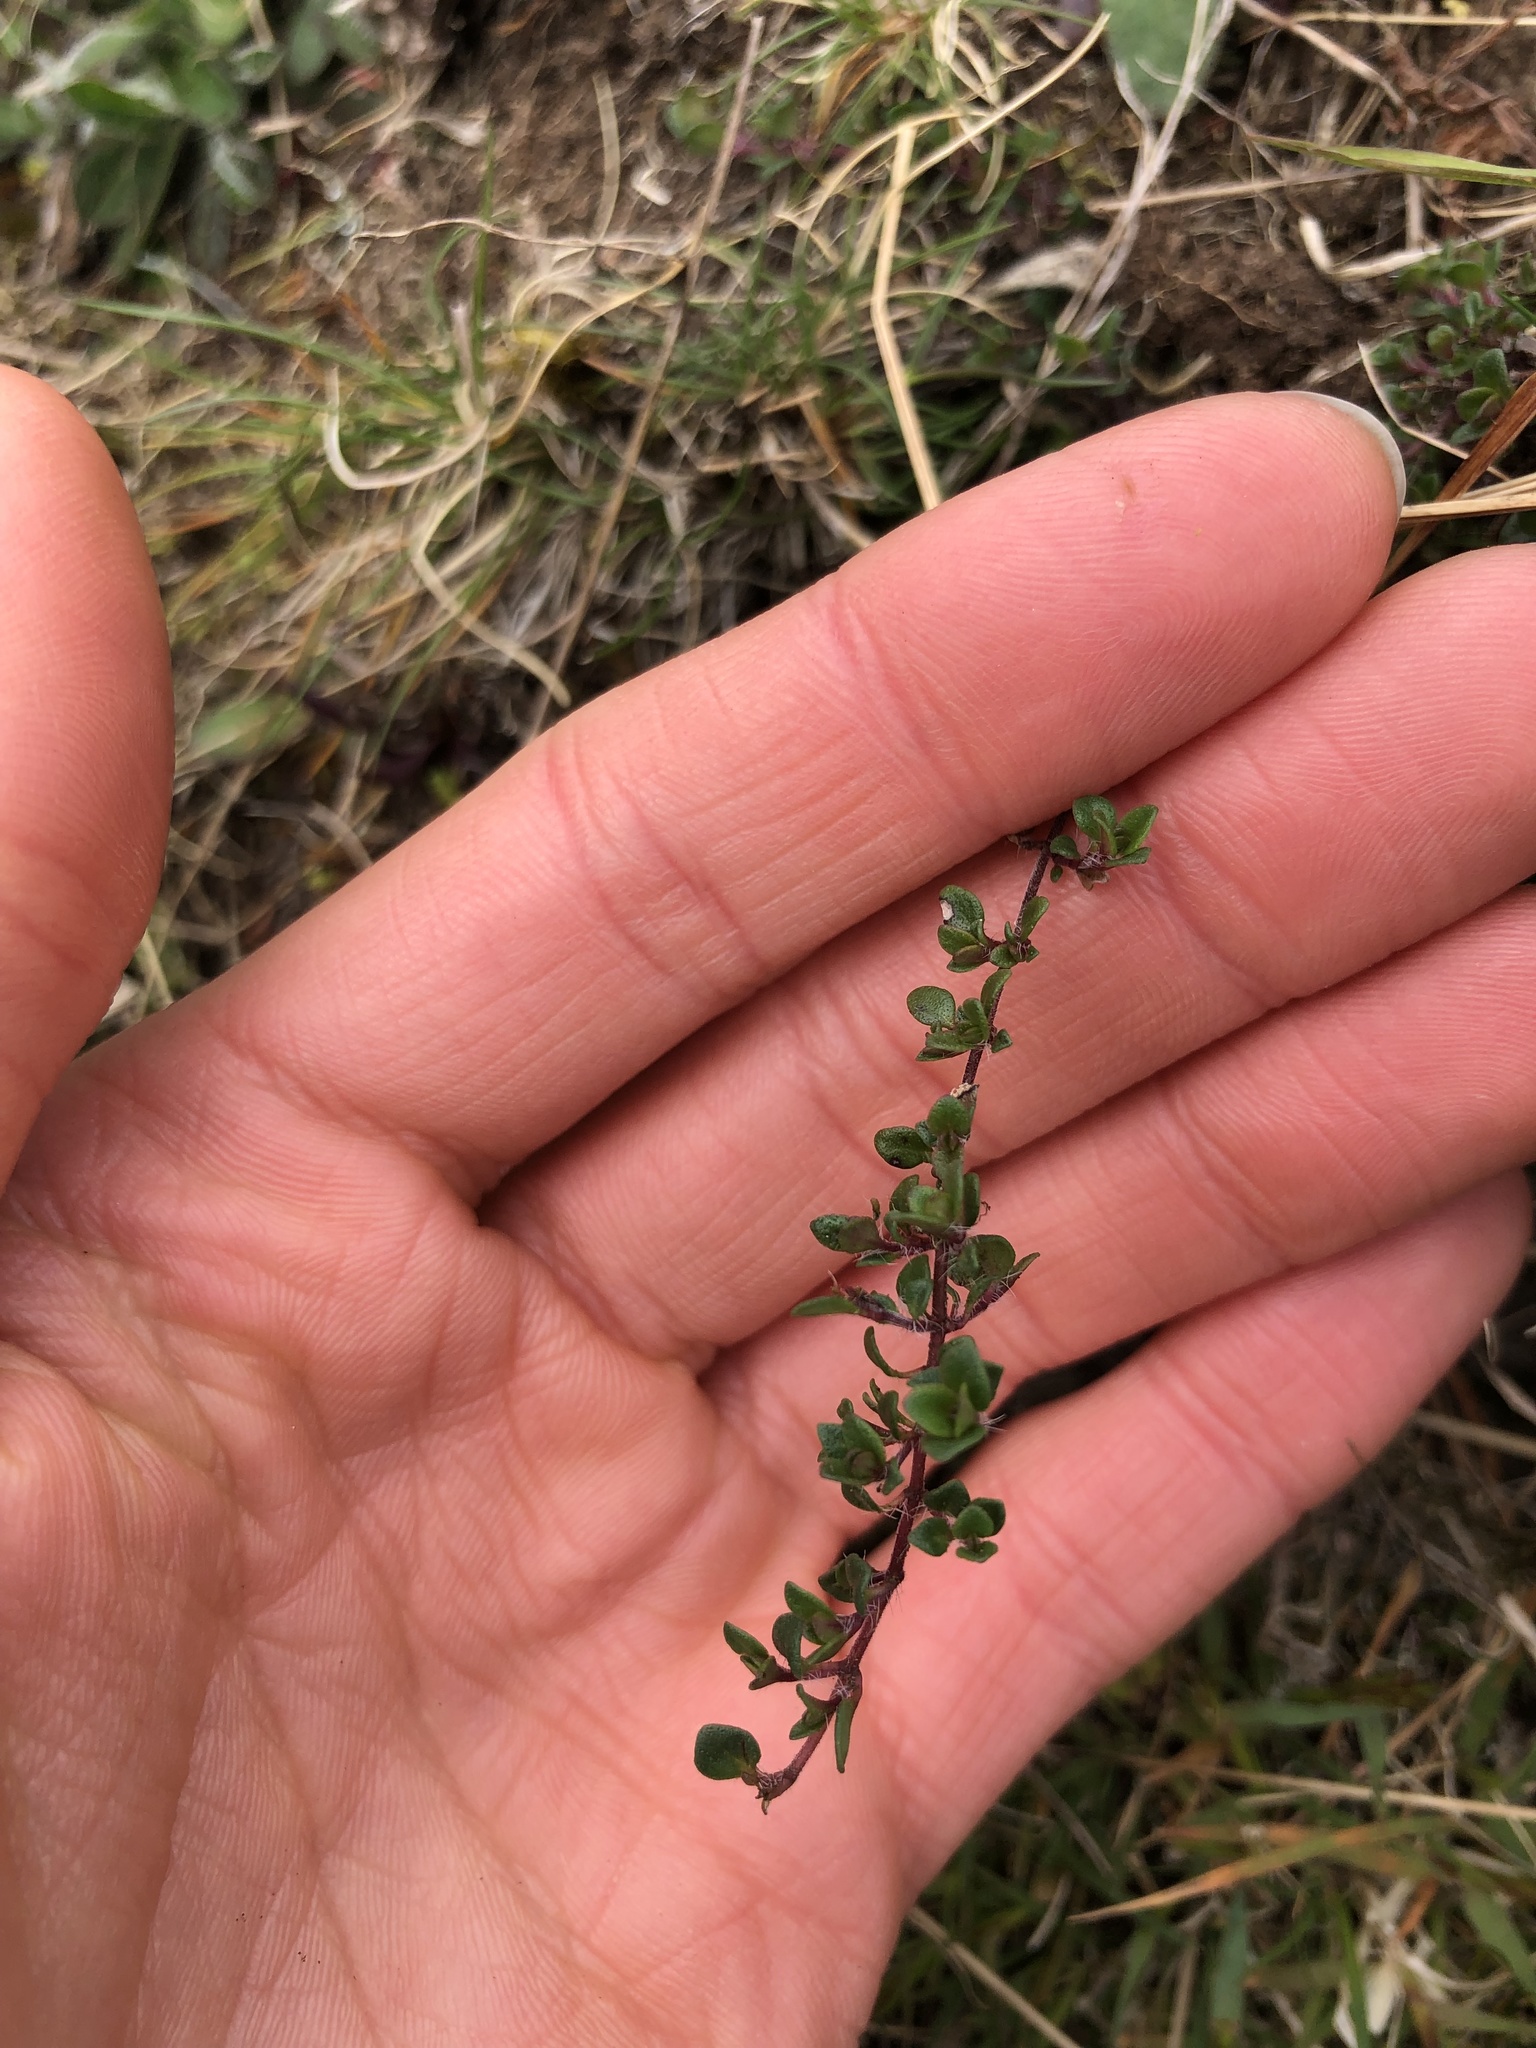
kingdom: Plantae
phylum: Tracheophyta
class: Magnoliopsida
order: Lamiales
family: Lamiaceae
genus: Thymus
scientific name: Thymus praecox
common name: Wild thyme
